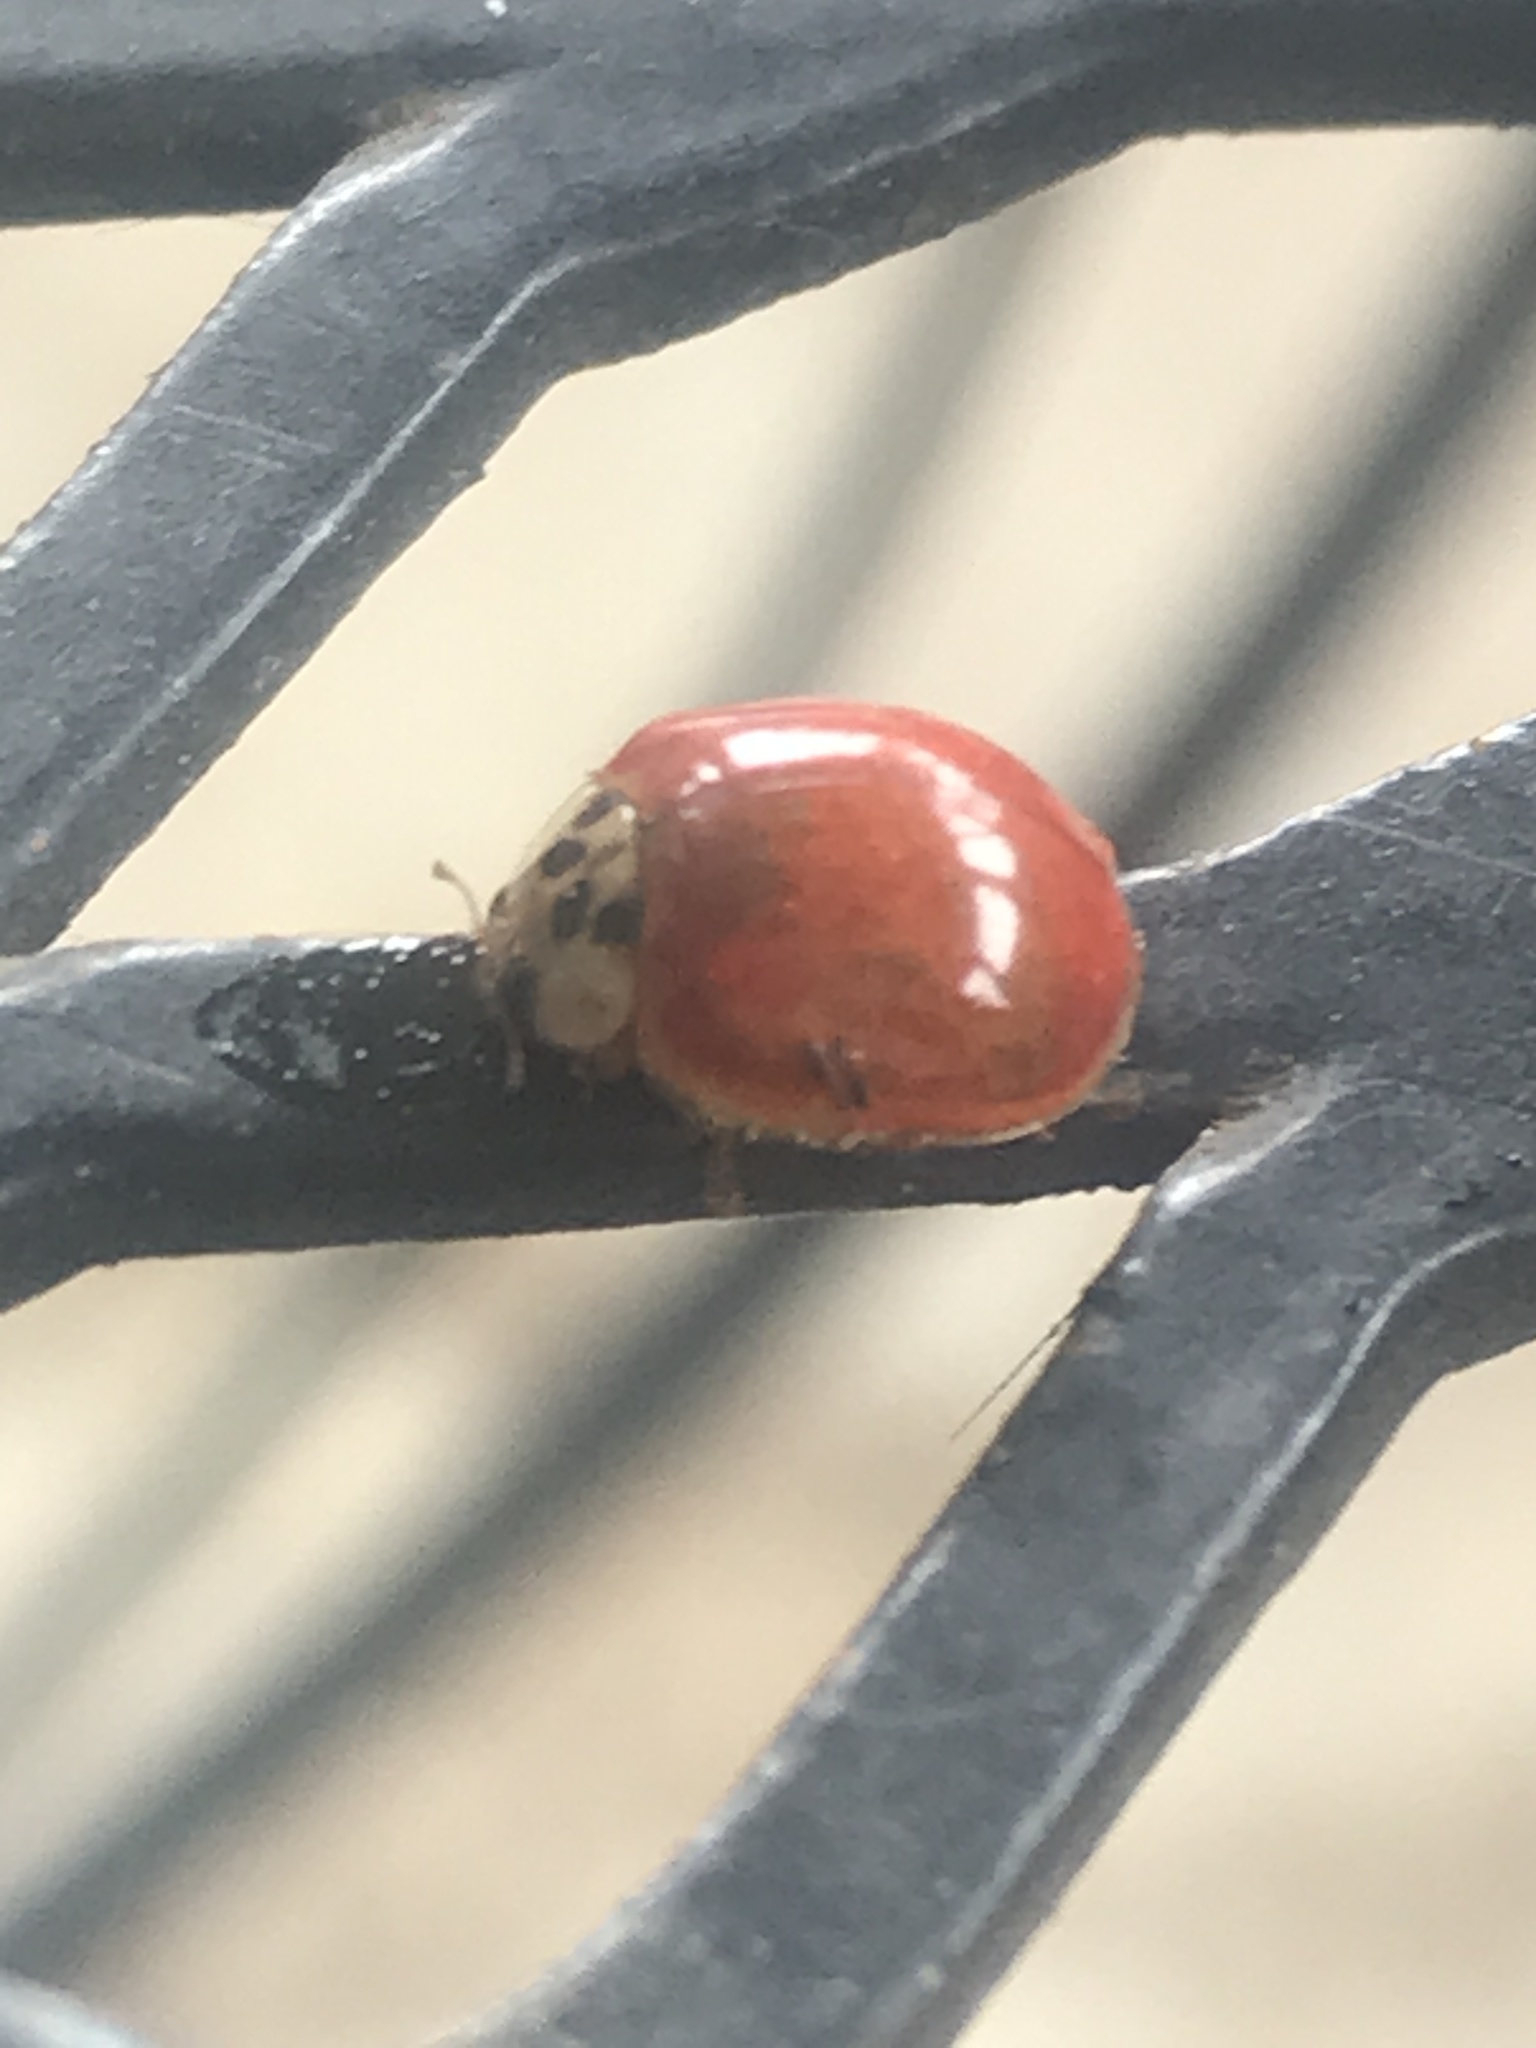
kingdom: Animalia
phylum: Arthropoda
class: Insecta
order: Coleoptera
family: Coccinellidae
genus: Harmonia
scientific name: Harmonia axyridis
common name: Harlequin ladybird
